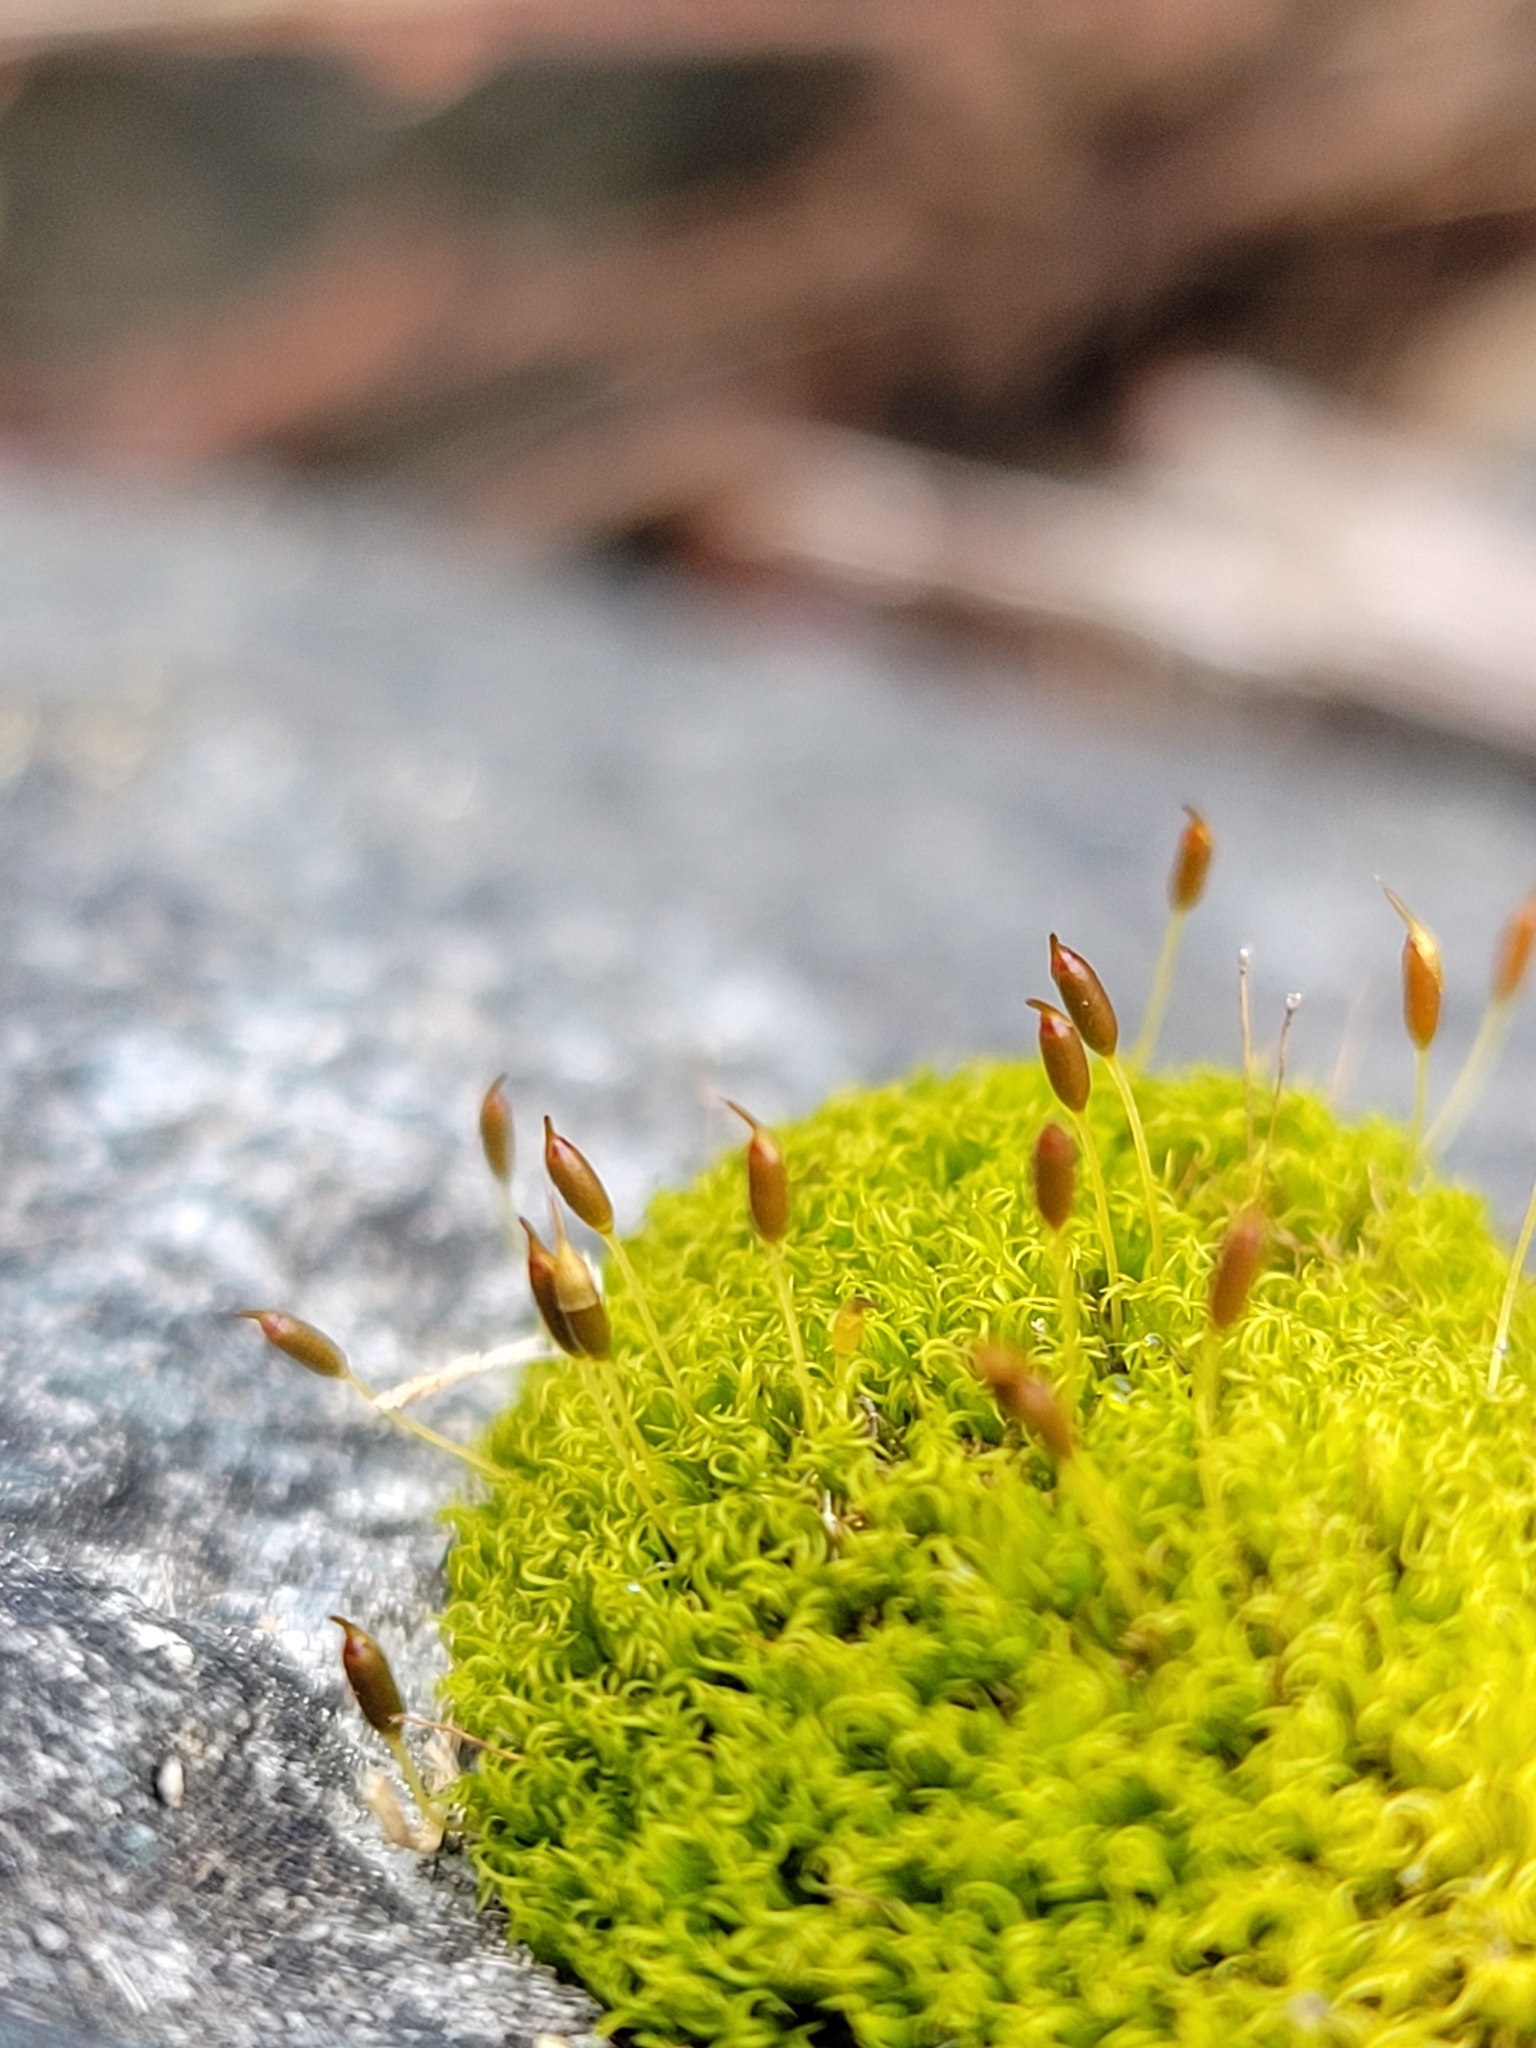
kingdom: Plantae
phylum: Bryophyta
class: Bryopsida
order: Dicranales
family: Rhabdoweisiaceae
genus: Dicranoweisia
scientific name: Dicranoweisia cirrata
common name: Common pincushion
